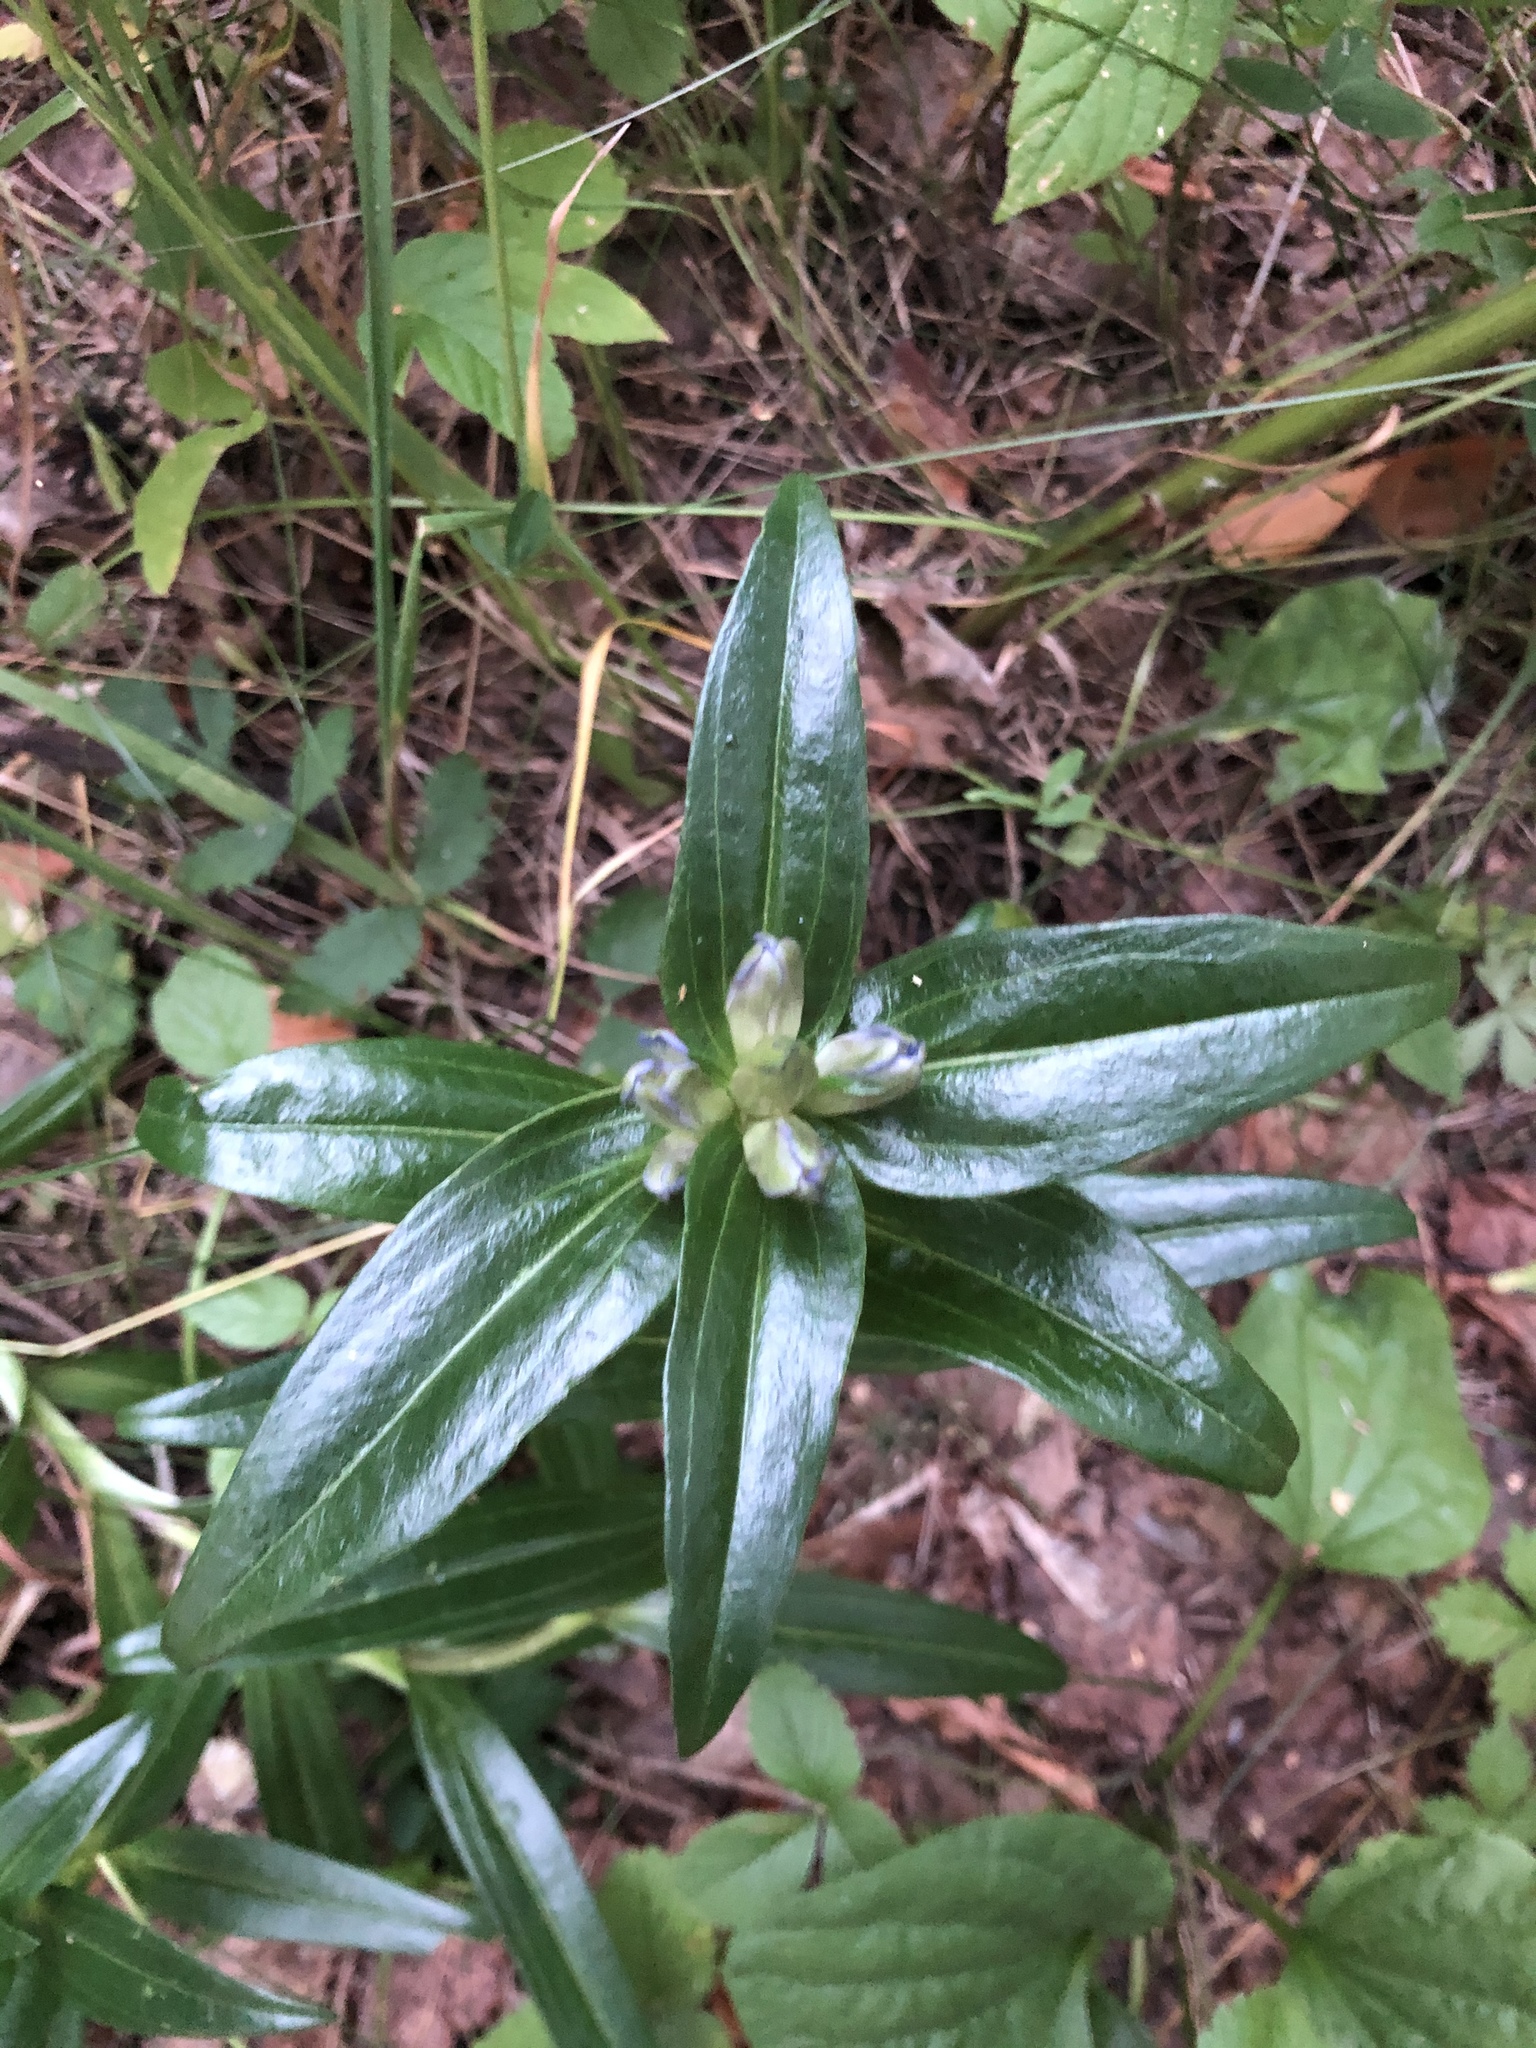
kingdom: Plantae
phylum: Tracheophyta
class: Magnoliopsida
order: Gentianales
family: Gentianaceae
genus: Gentiana
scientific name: Gentiana cruciata
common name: Cross gentian
